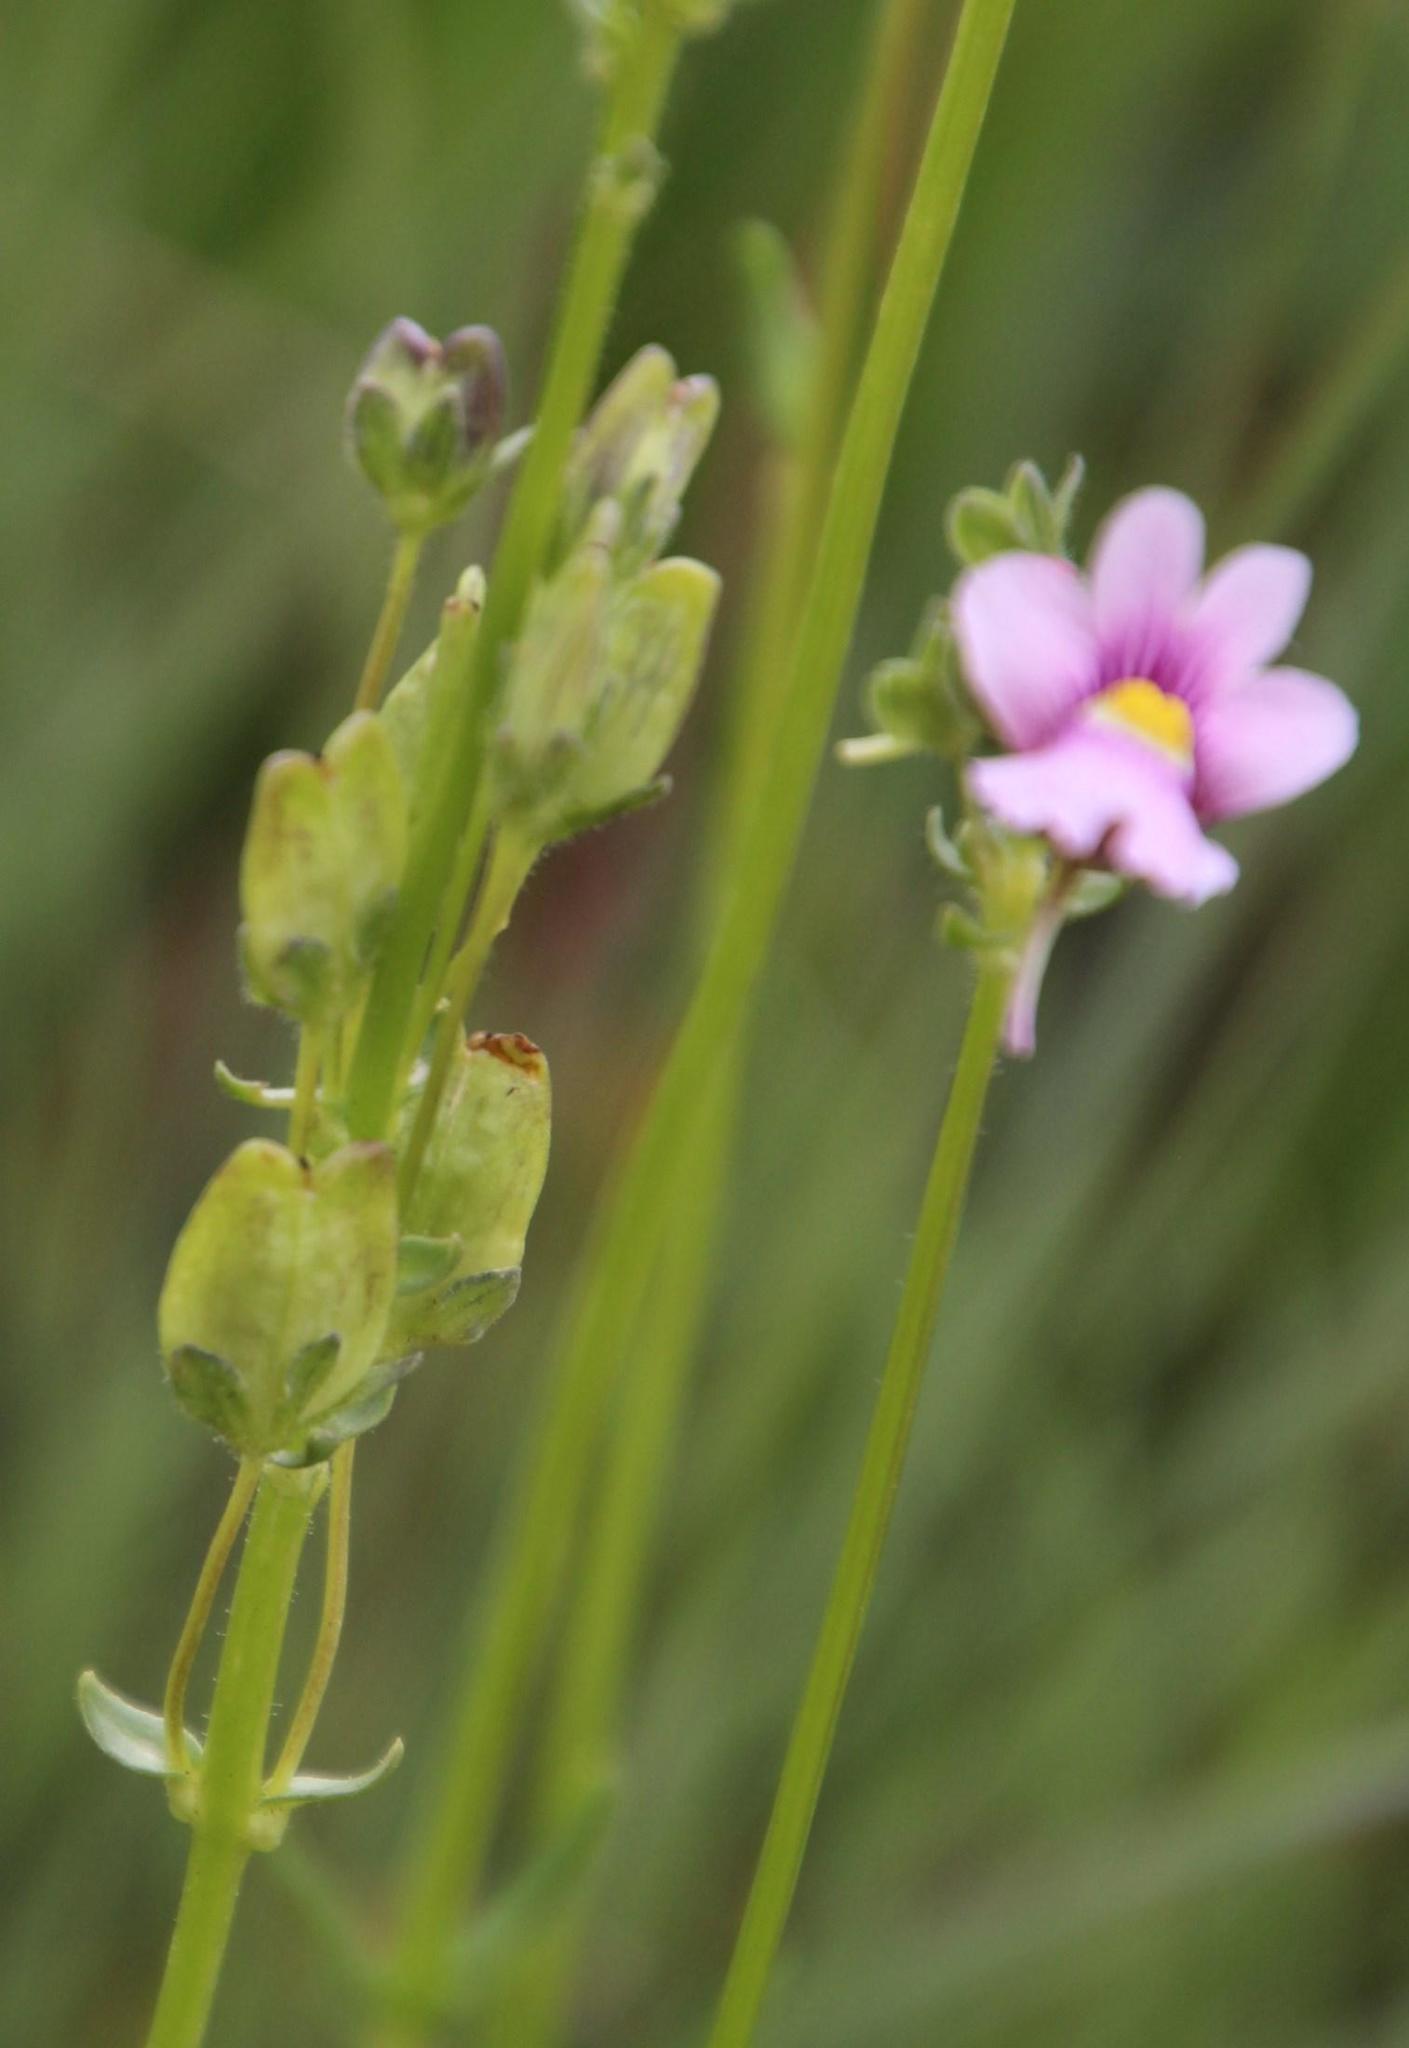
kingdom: Plantae
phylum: Tracheophyta
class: Magnoliopsida
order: Lamiales
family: Scrophulariaceae
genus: Nemesia
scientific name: Nemesia fruticans
